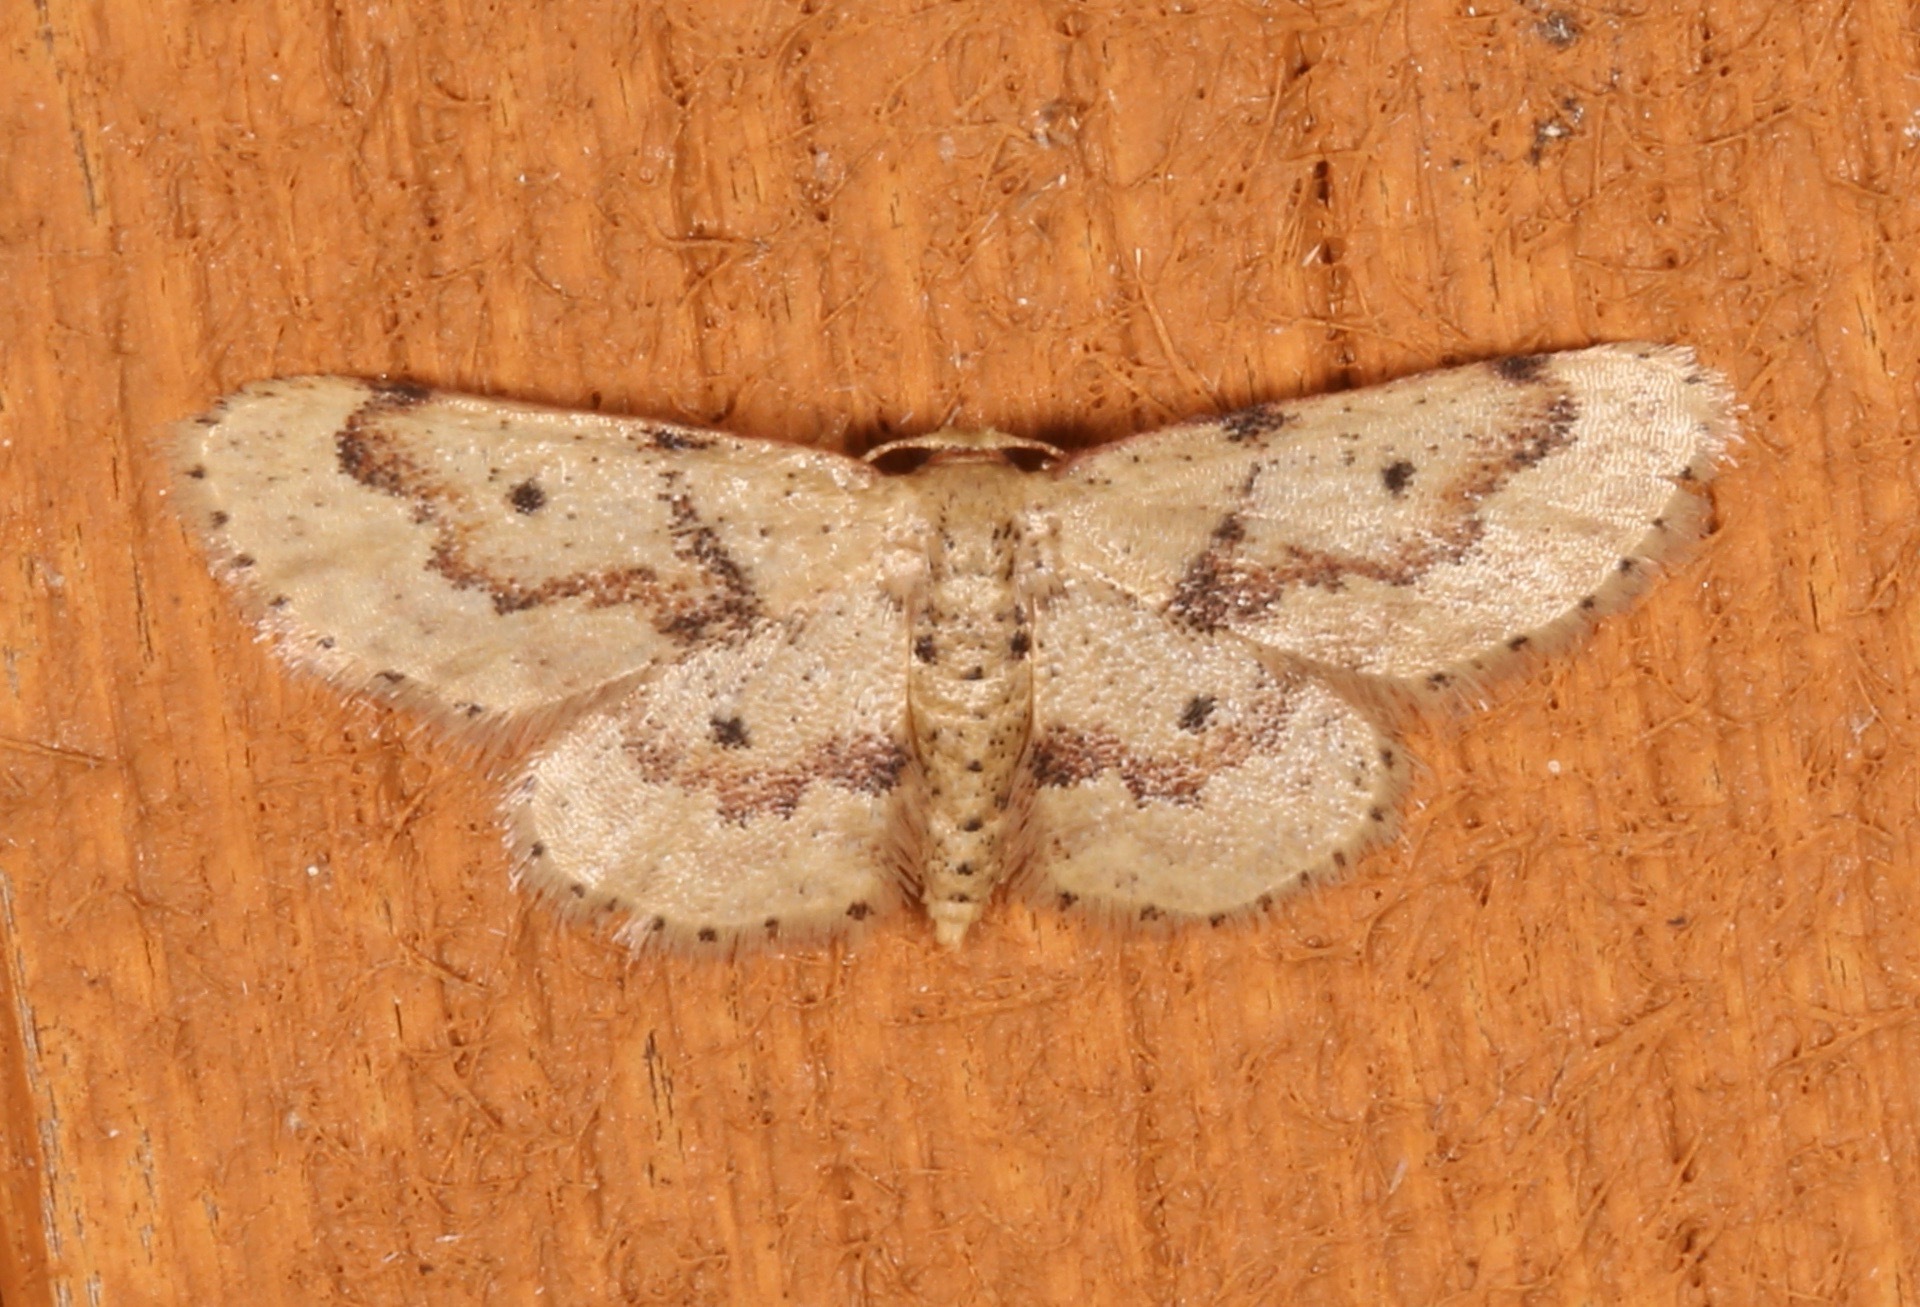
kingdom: Animalia
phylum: Arthropoda
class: Insecta
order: Lepidoptera
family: Geometridae
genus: Idaea
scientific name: Idaea micropterata
